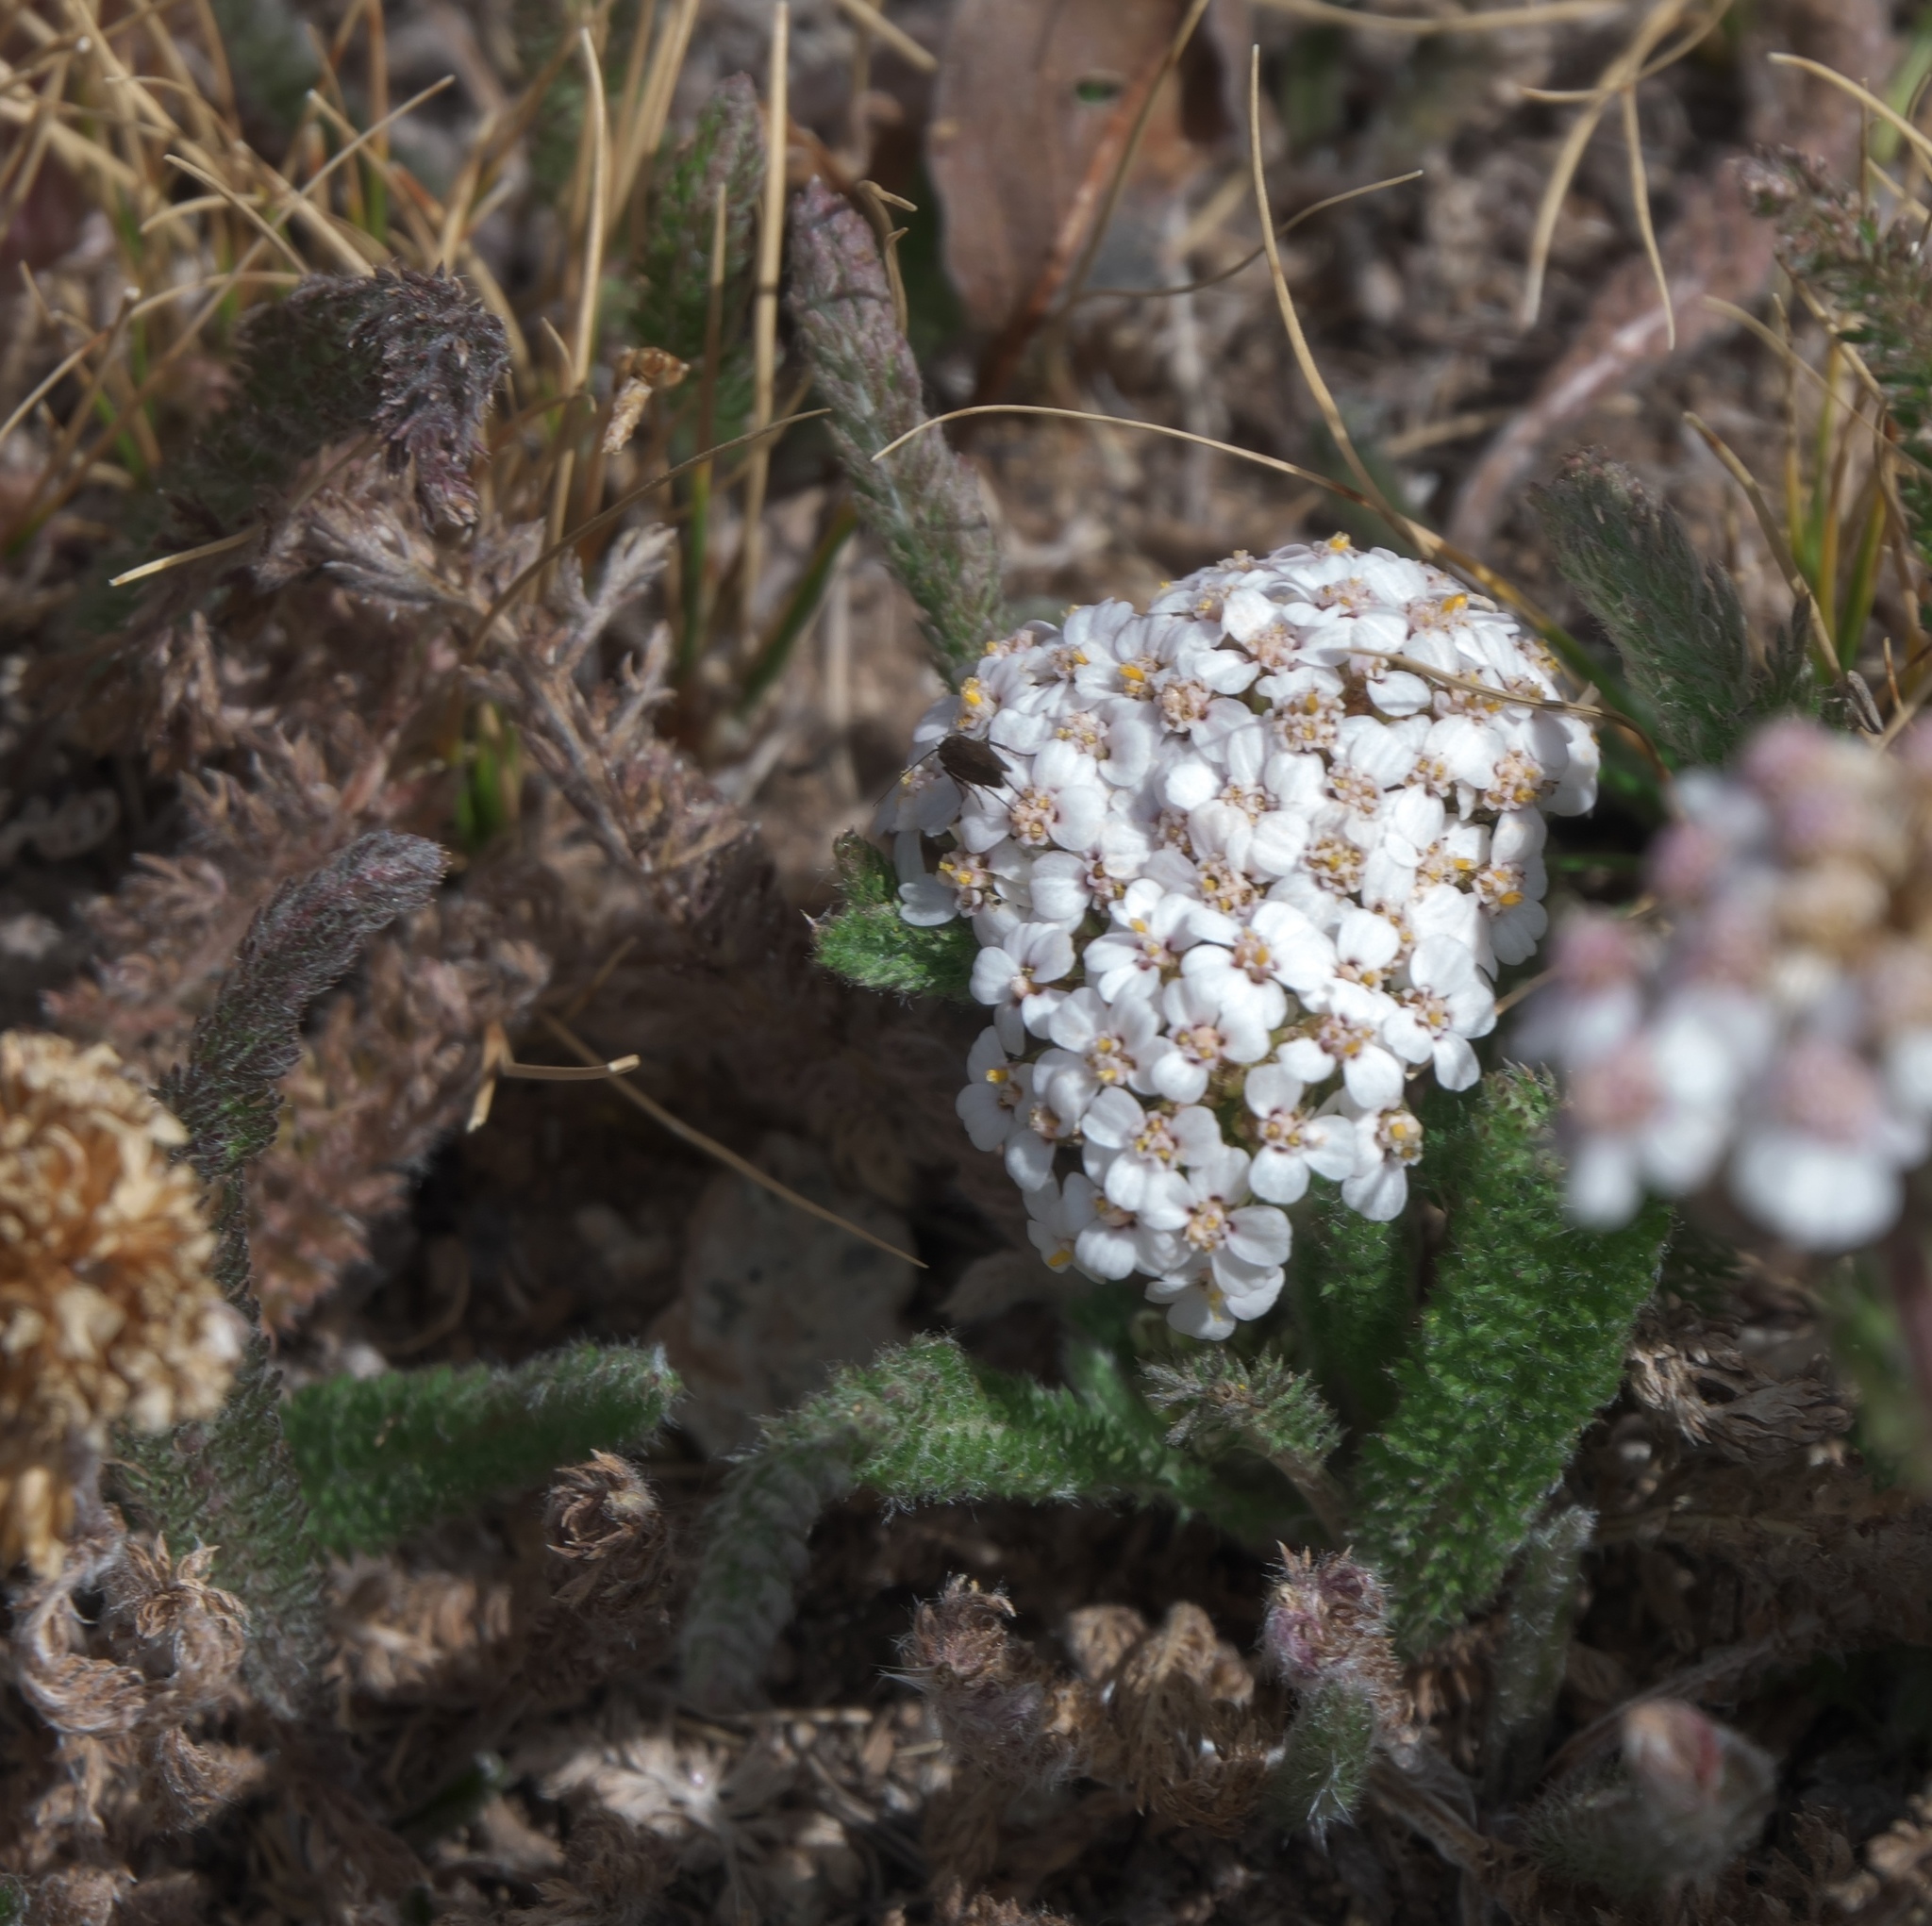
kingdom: Plantae
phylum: Tracheophyta
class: Magnoliopsida
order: Asterales
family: Asteraceae
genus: Achillea
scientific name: Achillea millefolium
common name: Yarrow
